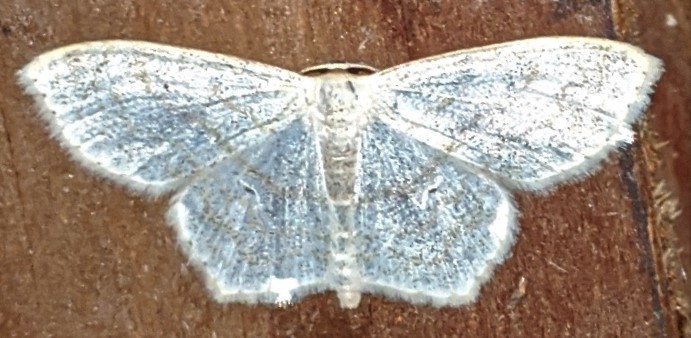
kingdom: Animalia
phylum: Arthropoda
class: Insecta
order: Lepidoptera
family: Geometridae
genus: Scopula
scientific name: Scopula limboundata
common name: Large lace border
